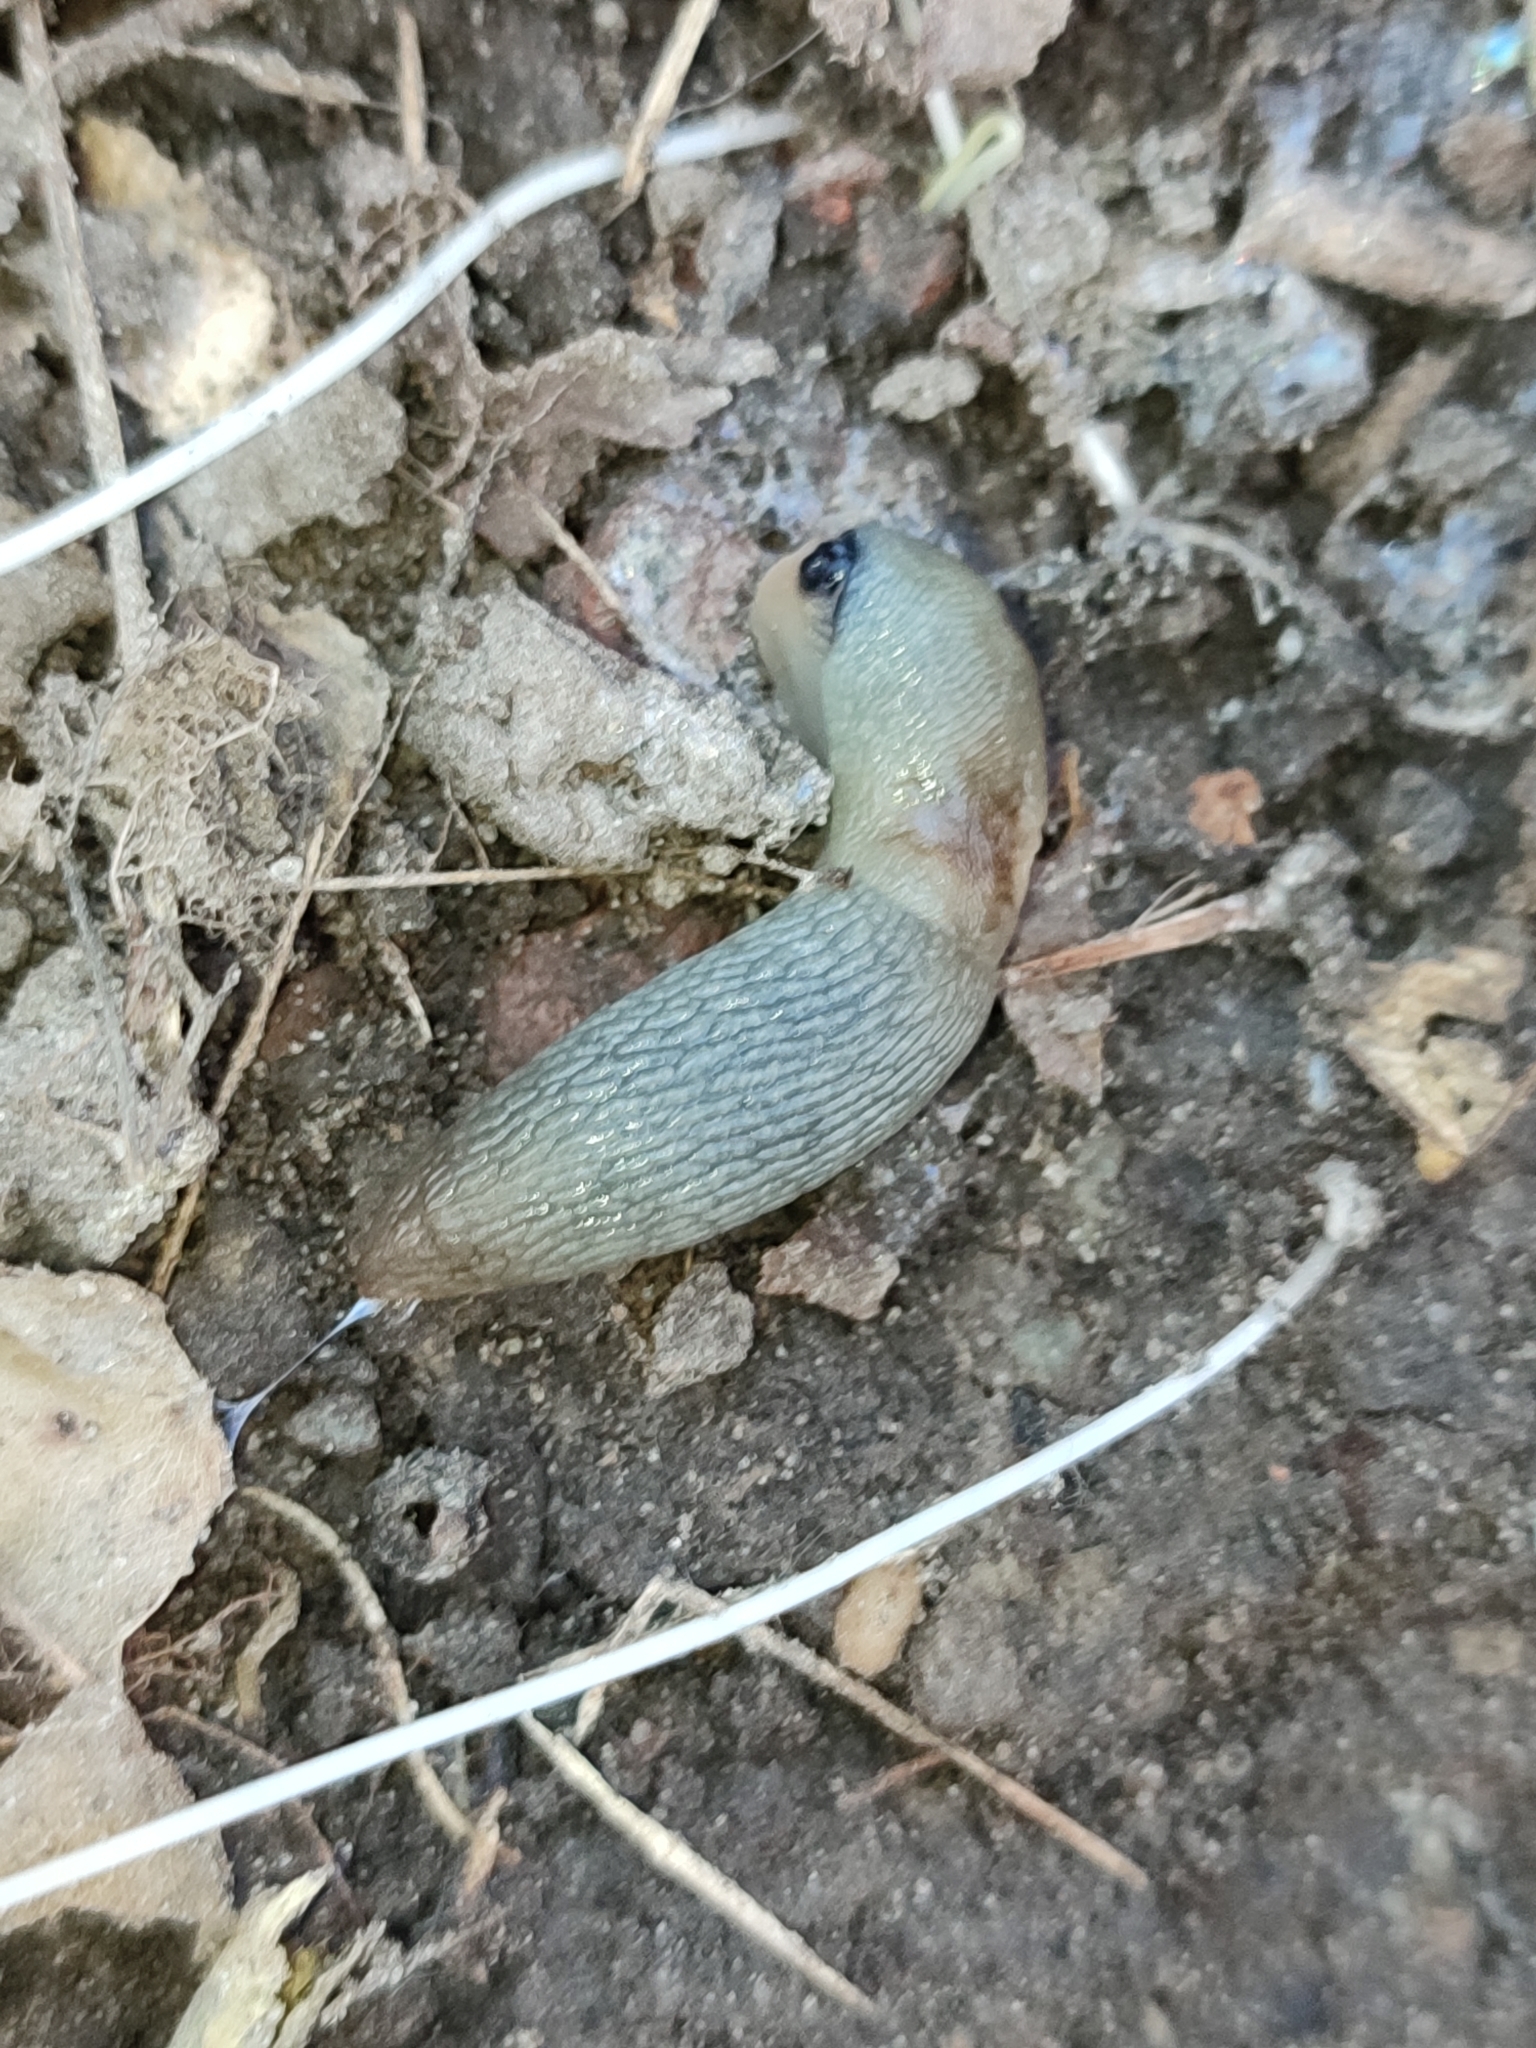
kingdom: Animalia
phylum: Mollusca
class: Gastropoda
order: Stylommatophora
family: Agriolimacidae
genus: Krynickillus
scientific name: Krynickillus melanocephalus
